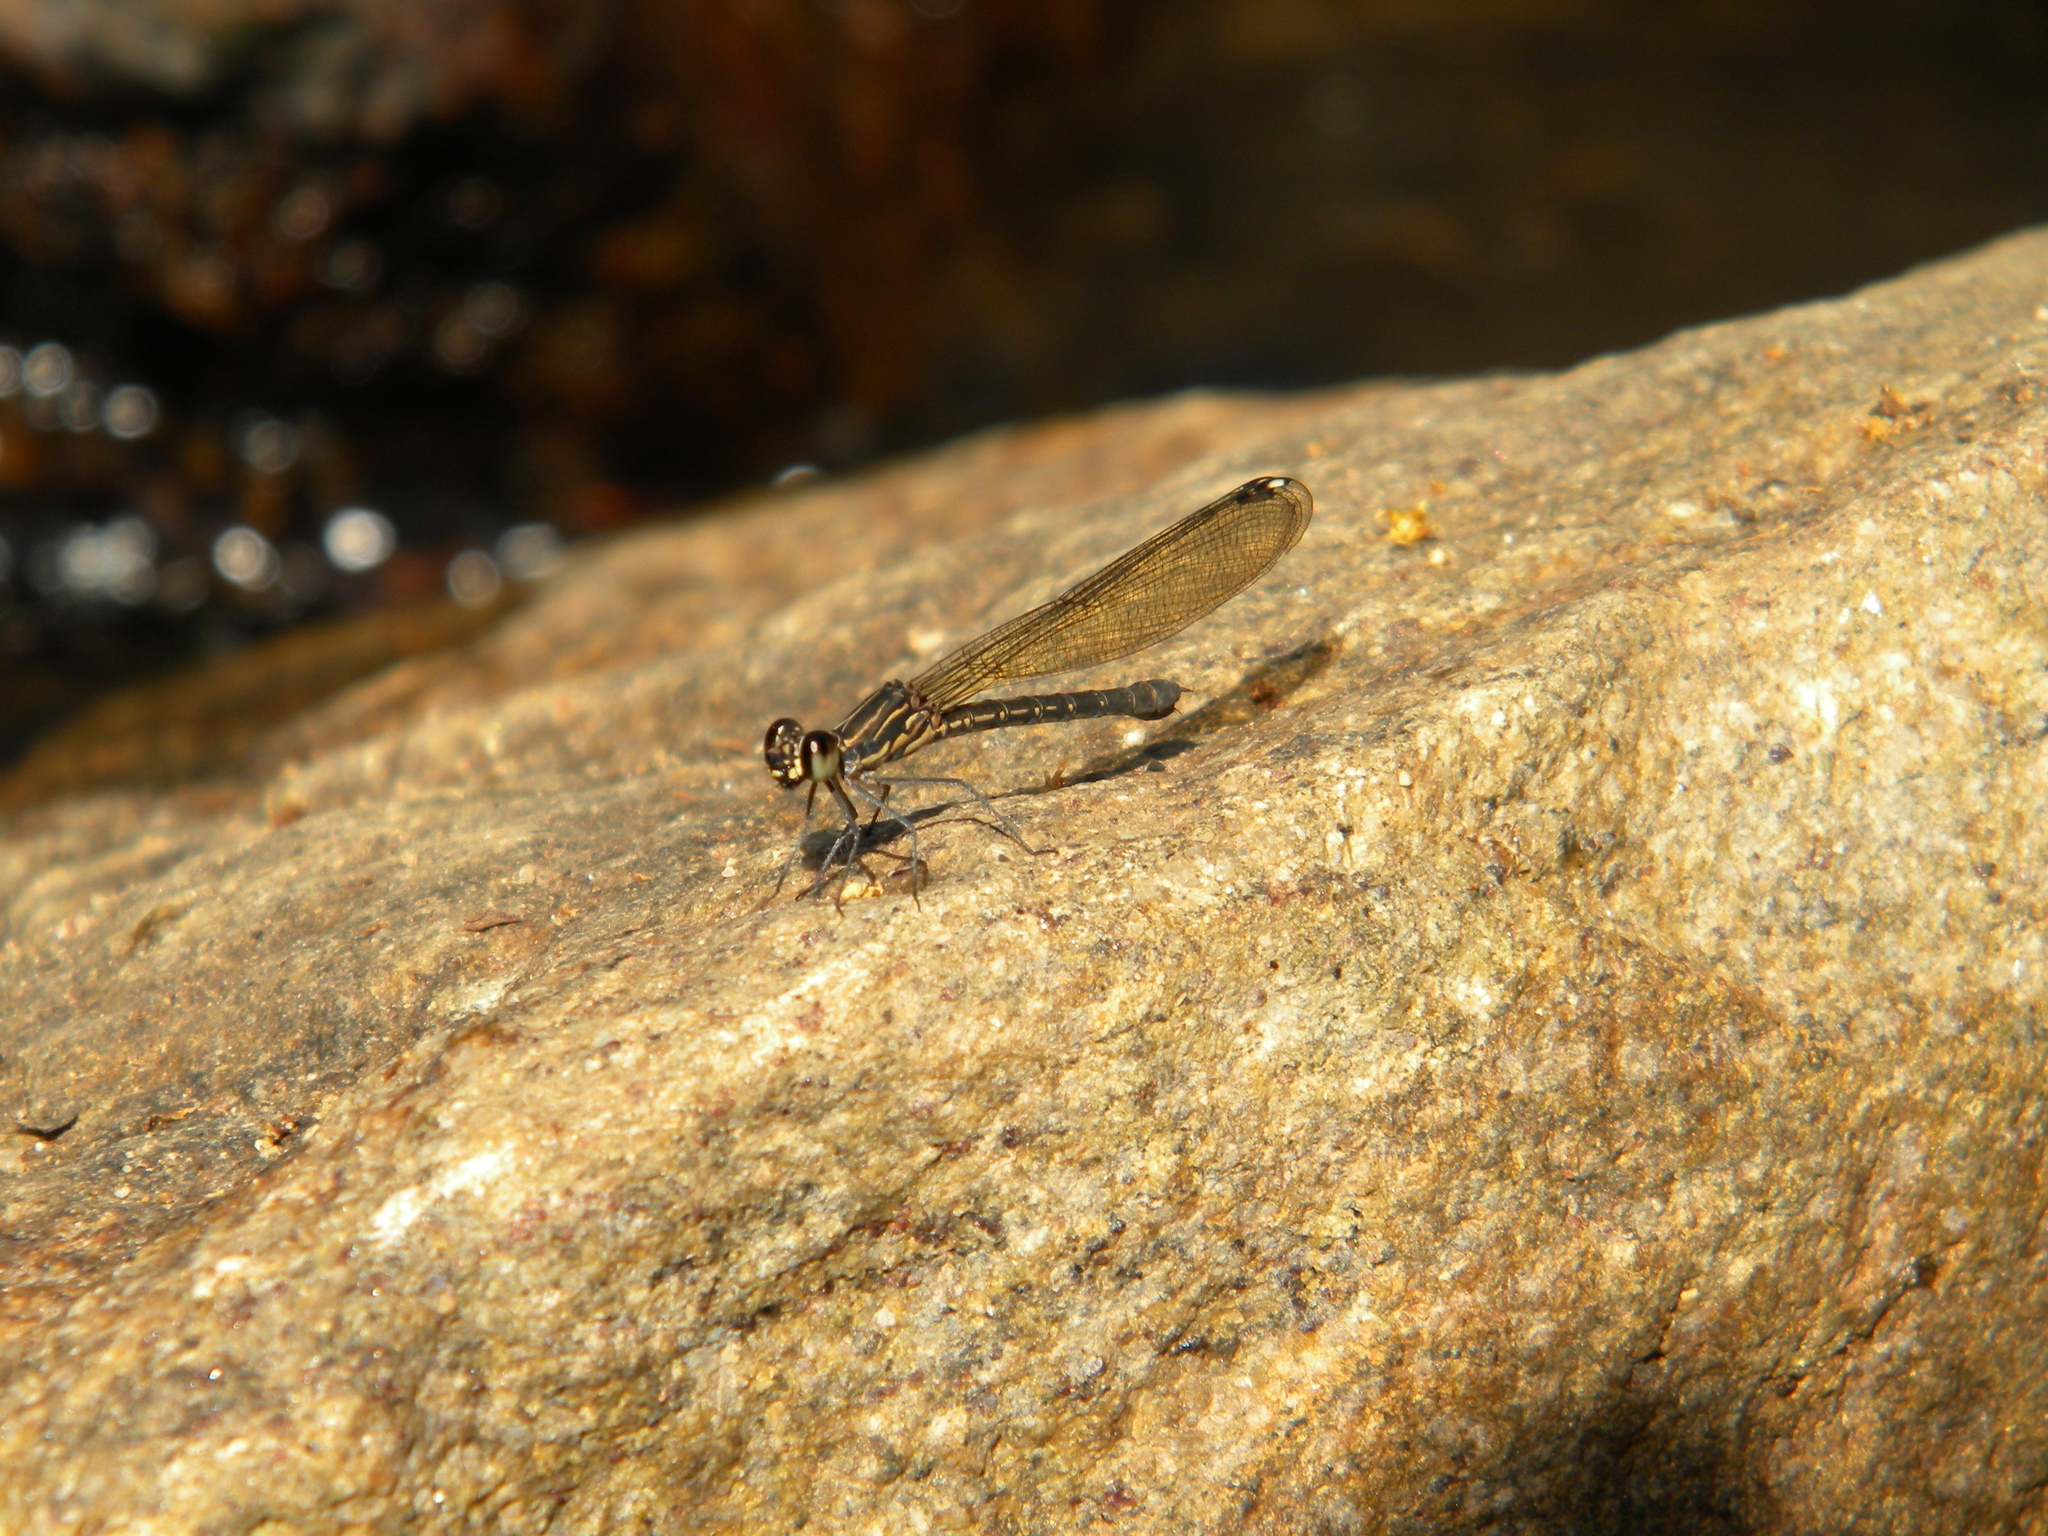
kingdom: Animalia
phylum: Arthropoda
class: Insecta
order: Odonata
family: Chlorocyphidae
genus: Heliocypha
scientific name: Heliocypha bisignata
